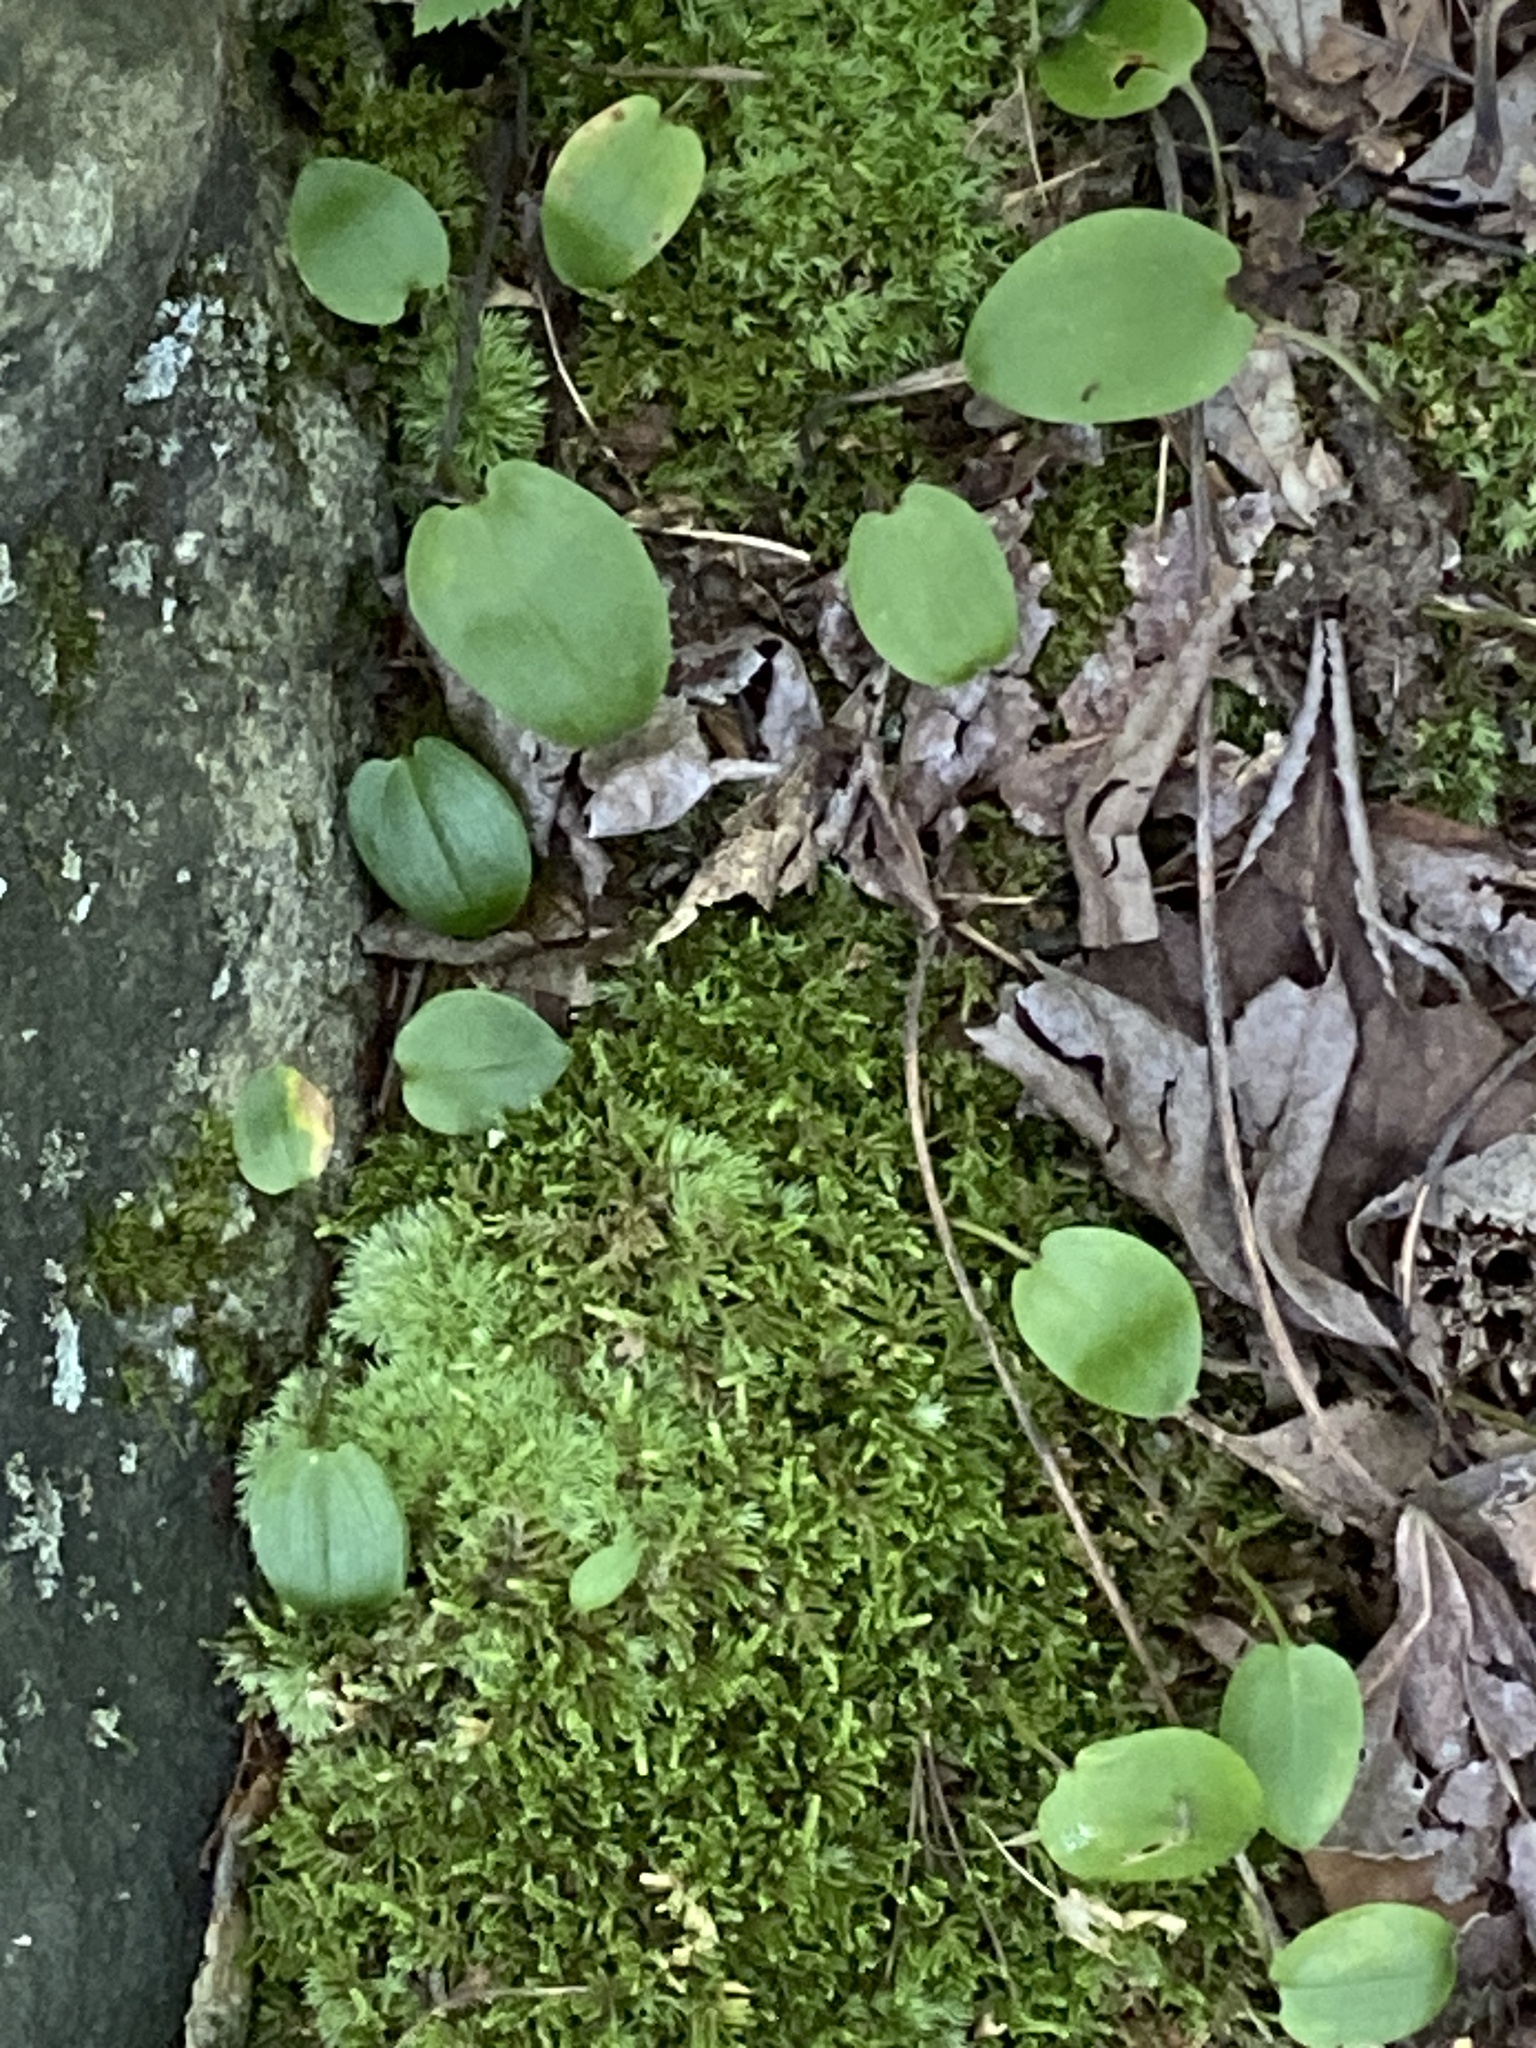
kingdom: Plantae
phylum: Tracheophyta
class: Liliopsida
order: Asparagales
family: Asparagaceae
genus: Maianthemum
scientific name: Maianthemum canadense
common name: False lily-of-the-valley
